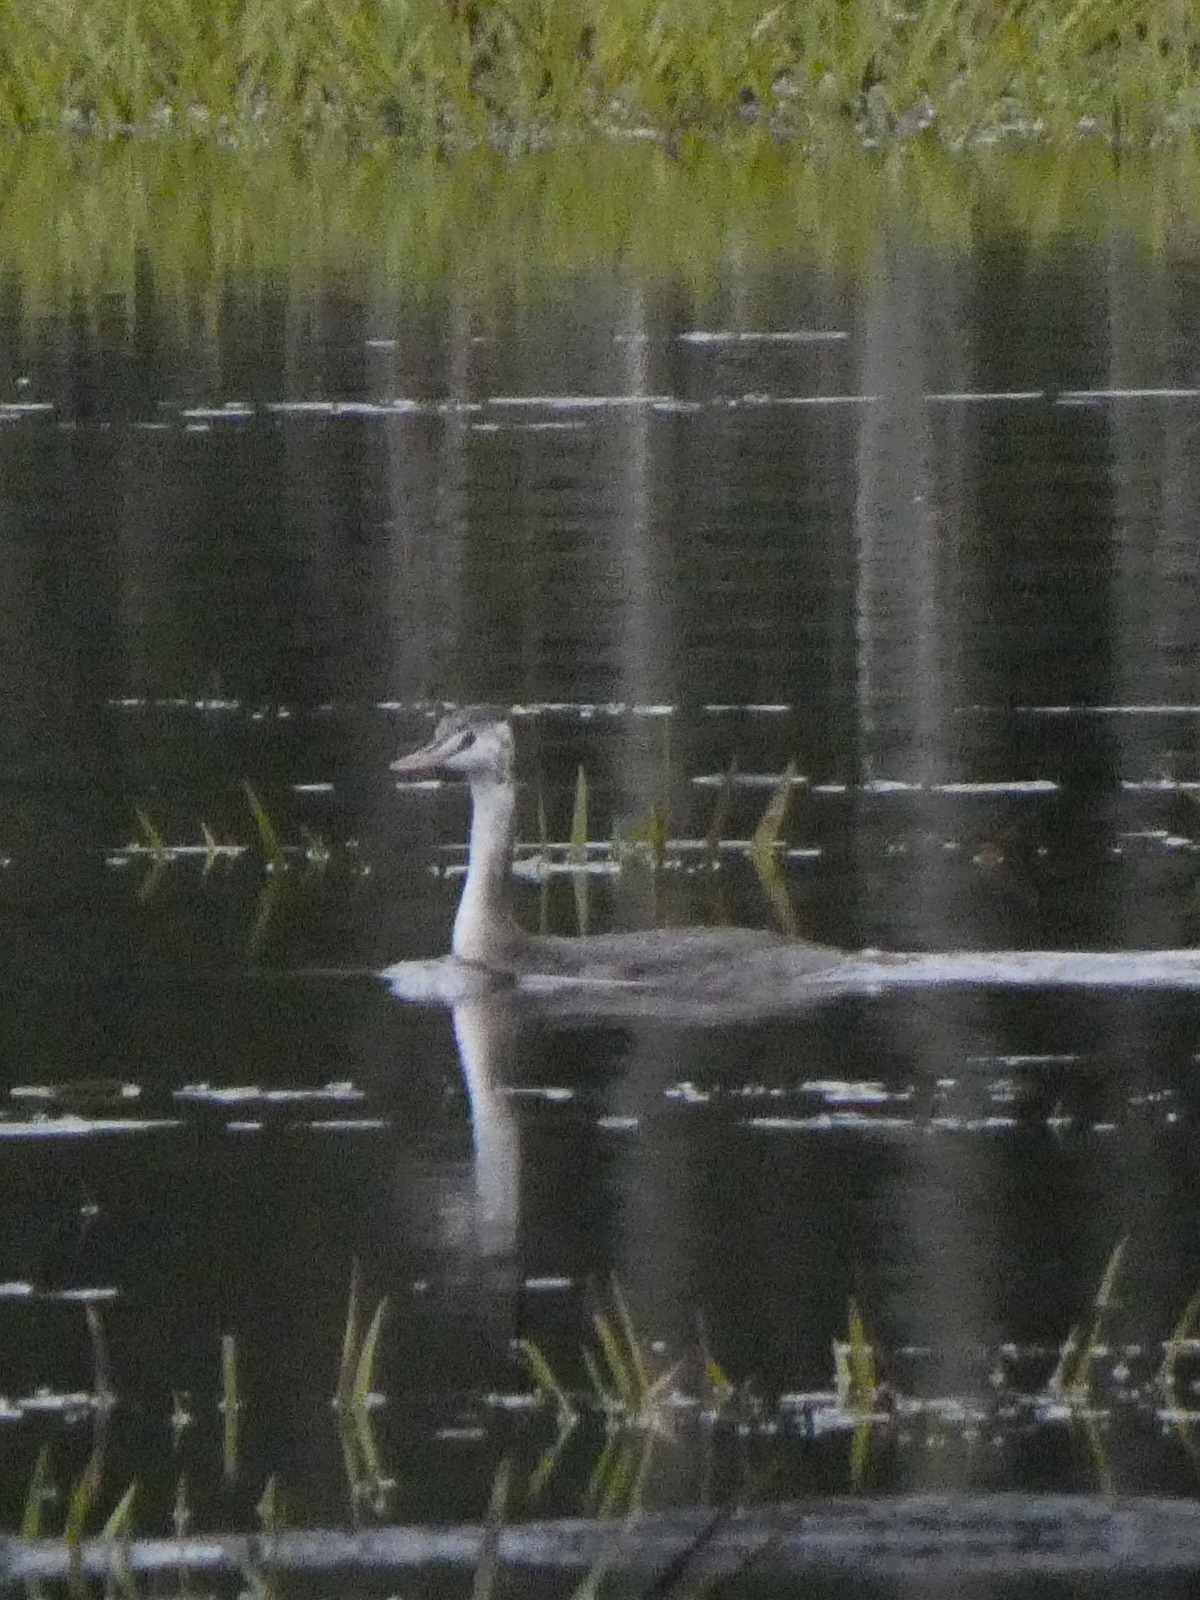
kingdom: Animalia
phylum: Chordata
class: Aves
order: Podicipediformes
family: Podicipedidae
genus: Podiceps
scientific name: Podiceps cristatus
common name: Great crested grebe
